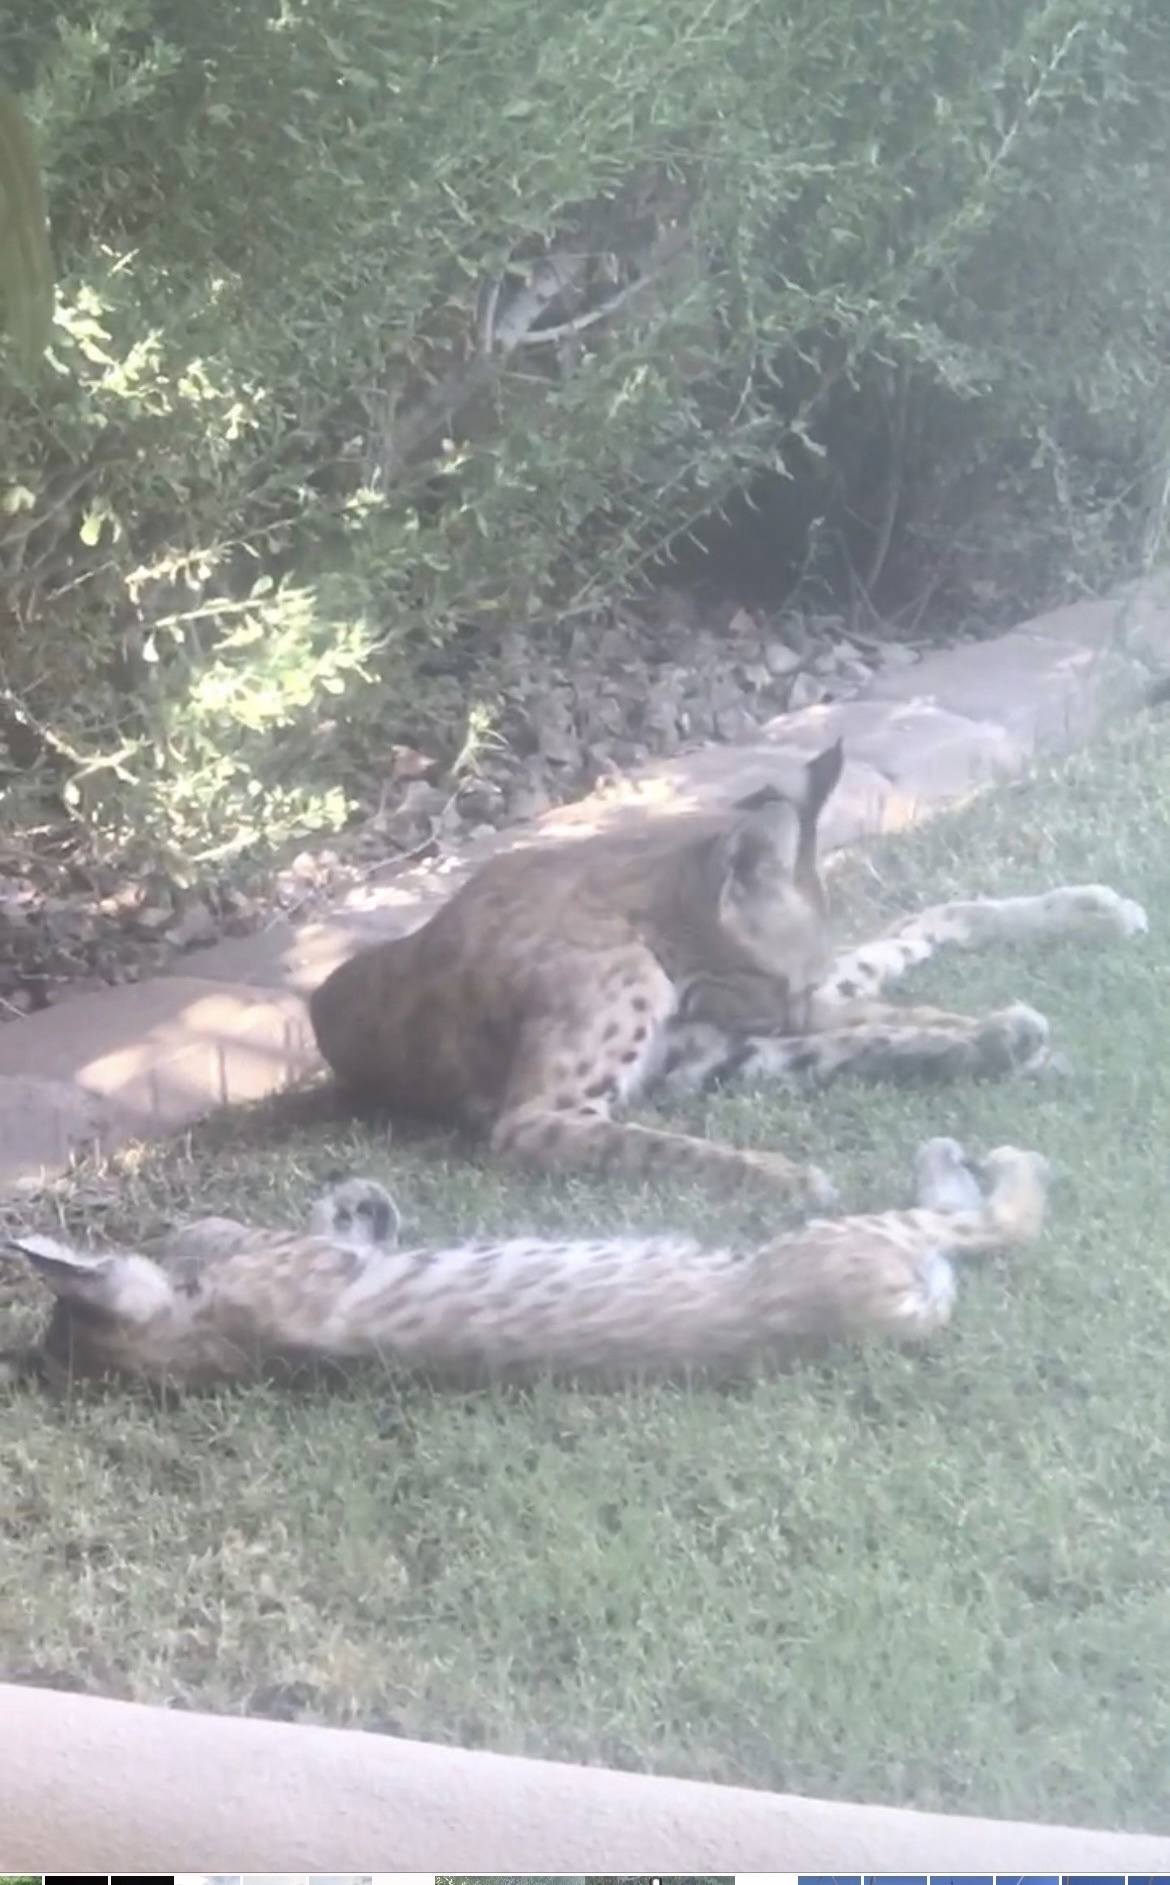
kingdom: Animalia
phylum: Chordata
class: Mammalia
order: Carnivora
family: Felidae
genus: Lynx
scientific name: Lynx rufus
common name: Bobcat
